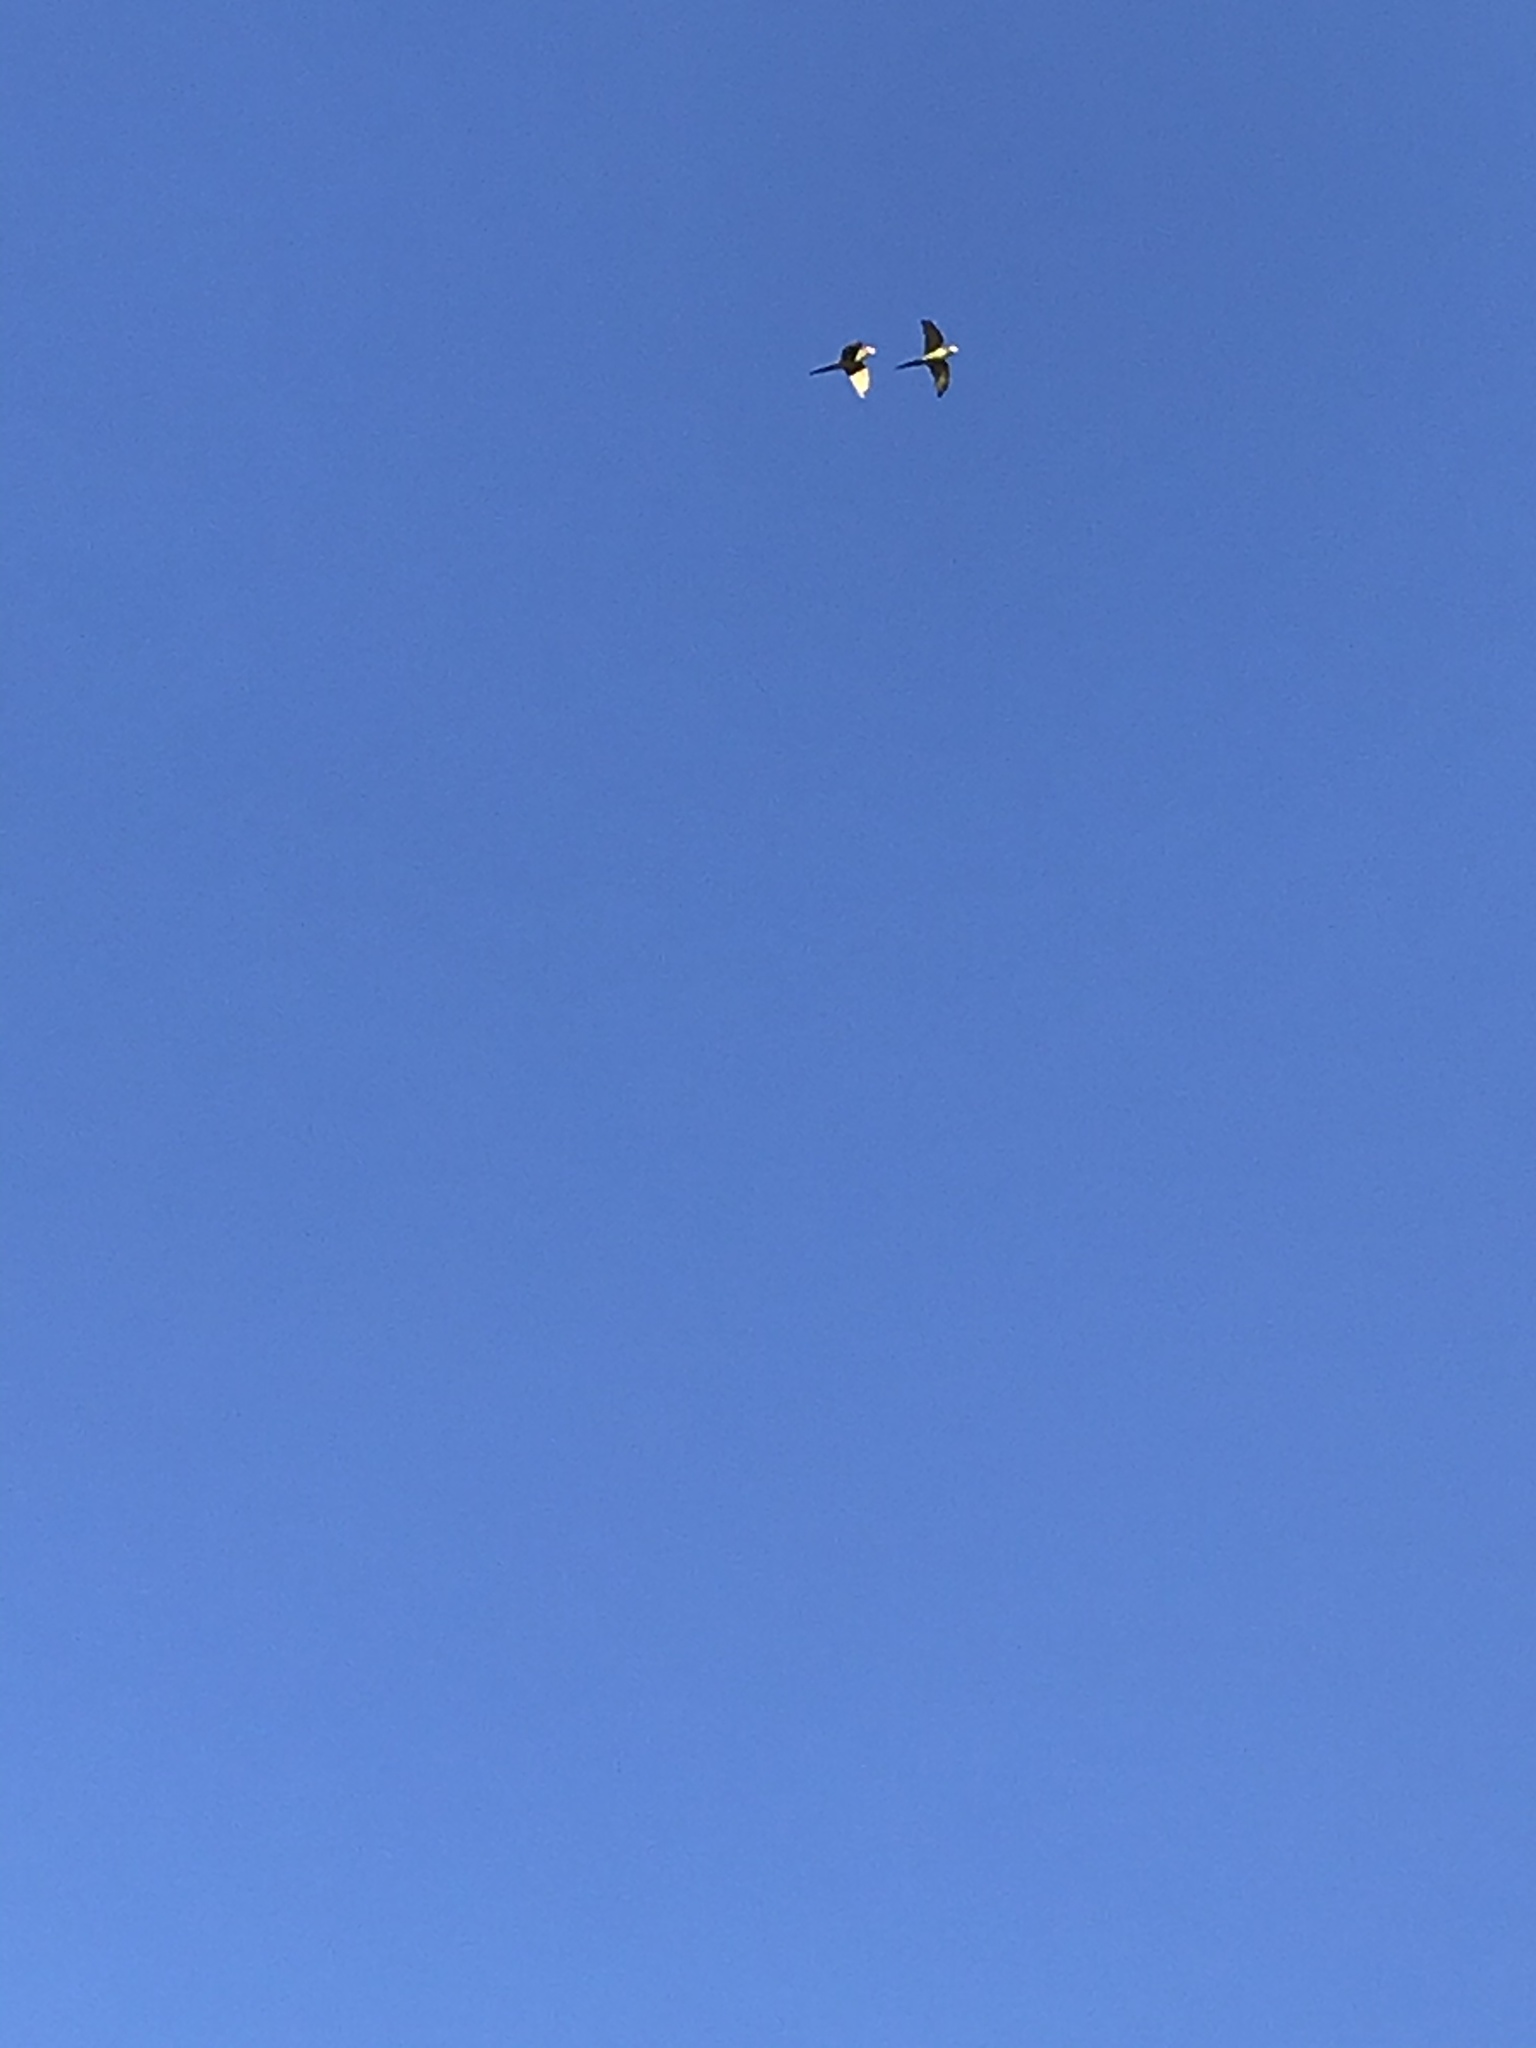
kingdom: Animalia
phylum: Chordata
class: Aves
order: Psittaciformes
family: Psittacidae
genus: Aratinga
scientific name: Aratinga mitrata
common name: Mitred parakeet
